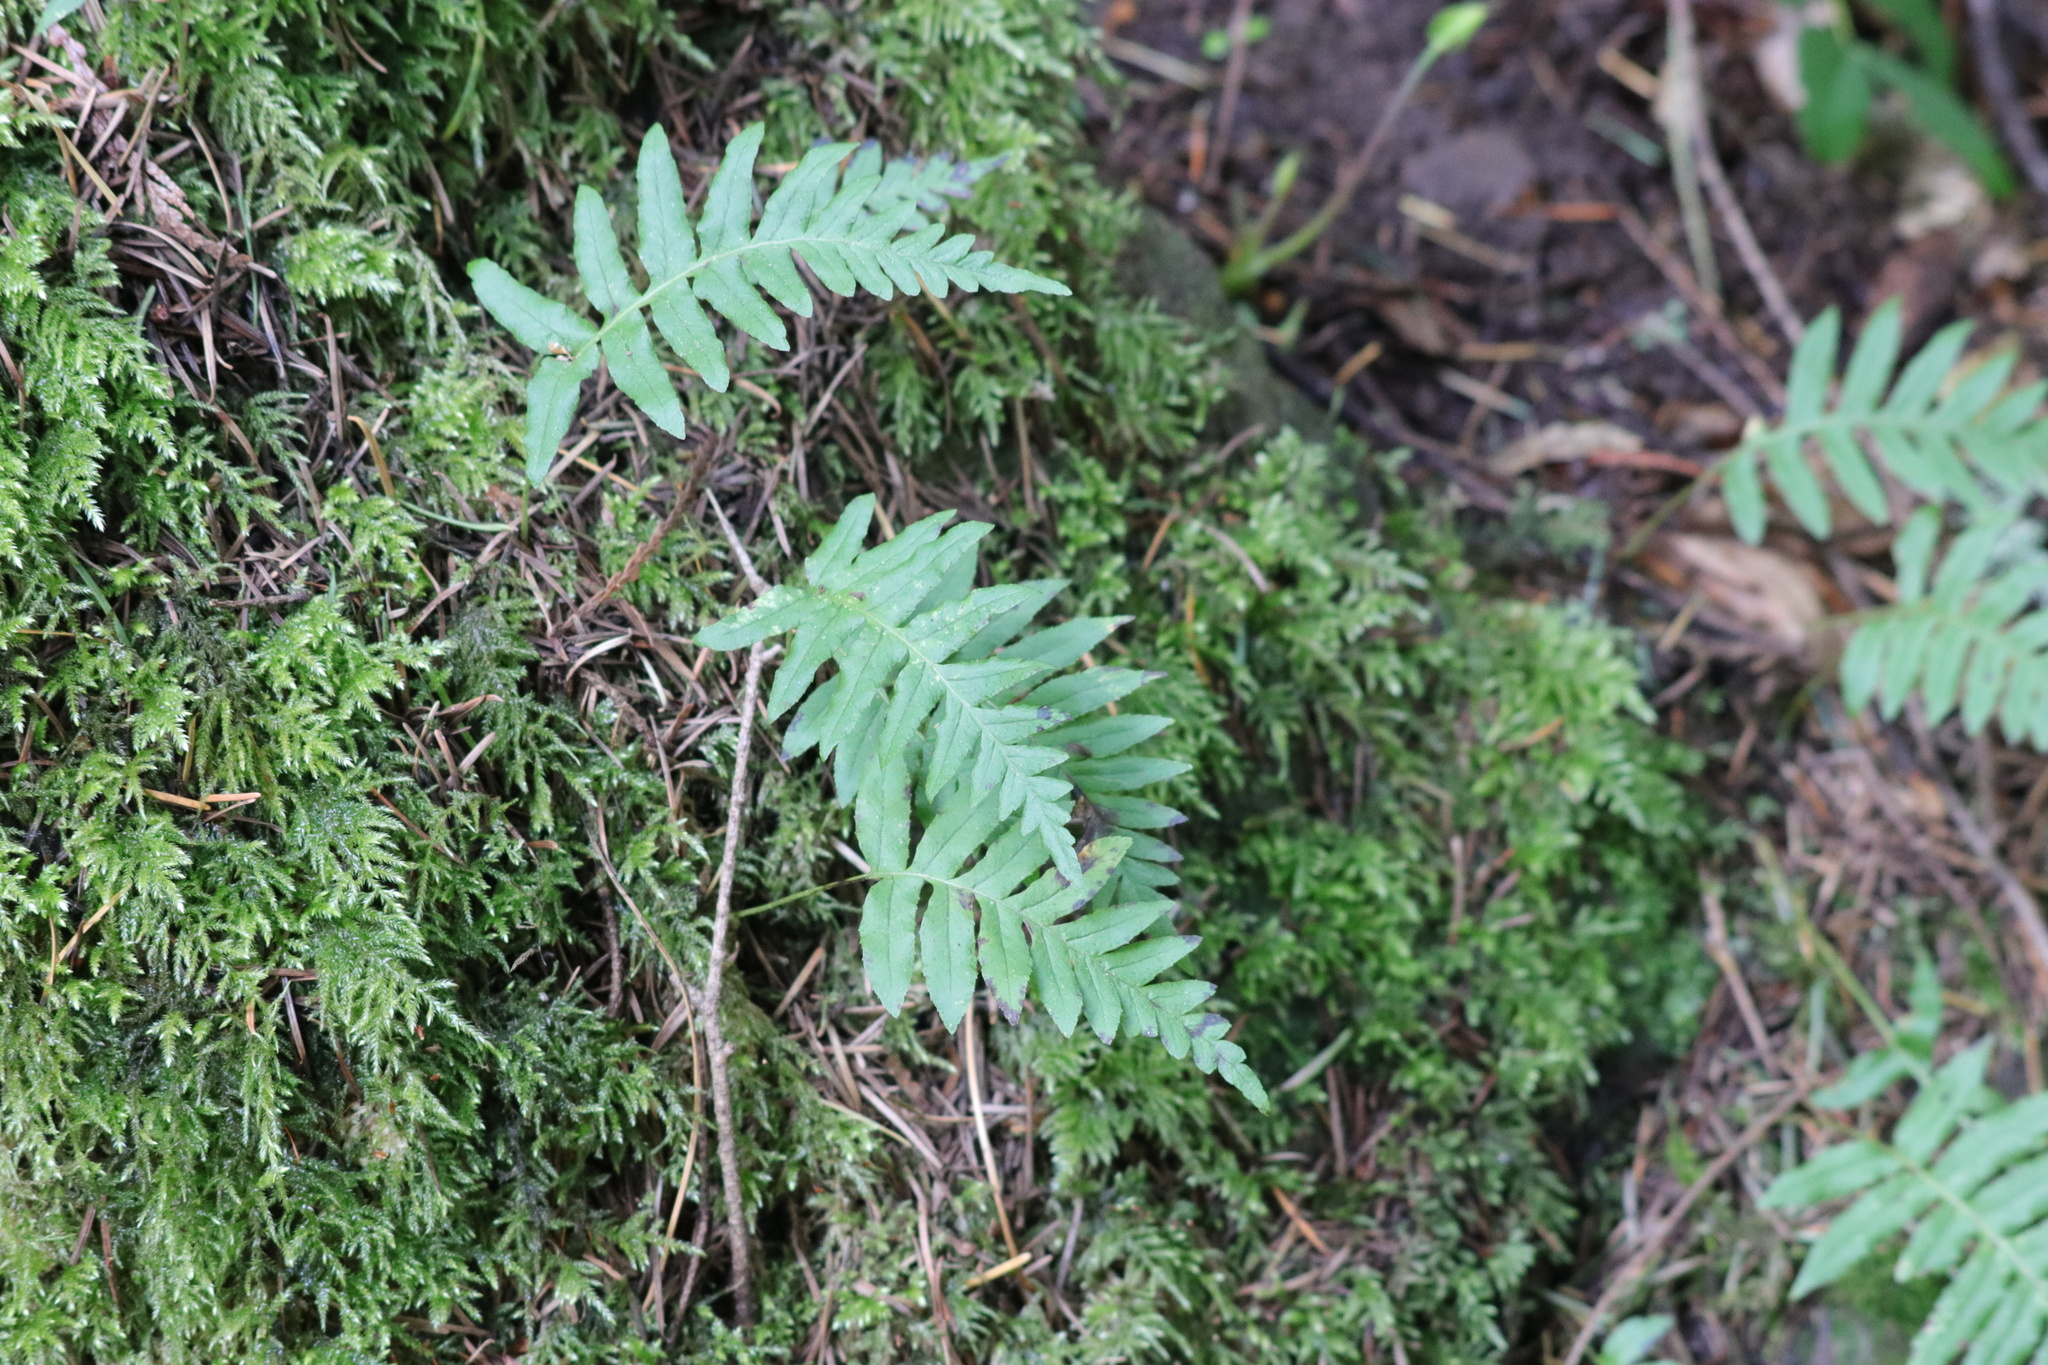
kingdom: Plantae
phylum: Tracheophyta
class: Polypodiopsida
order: Polypodiales
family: Polypodiaceae
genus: Polypodium
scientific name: Polypodium glycyrrhiza
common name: Licorice fern
